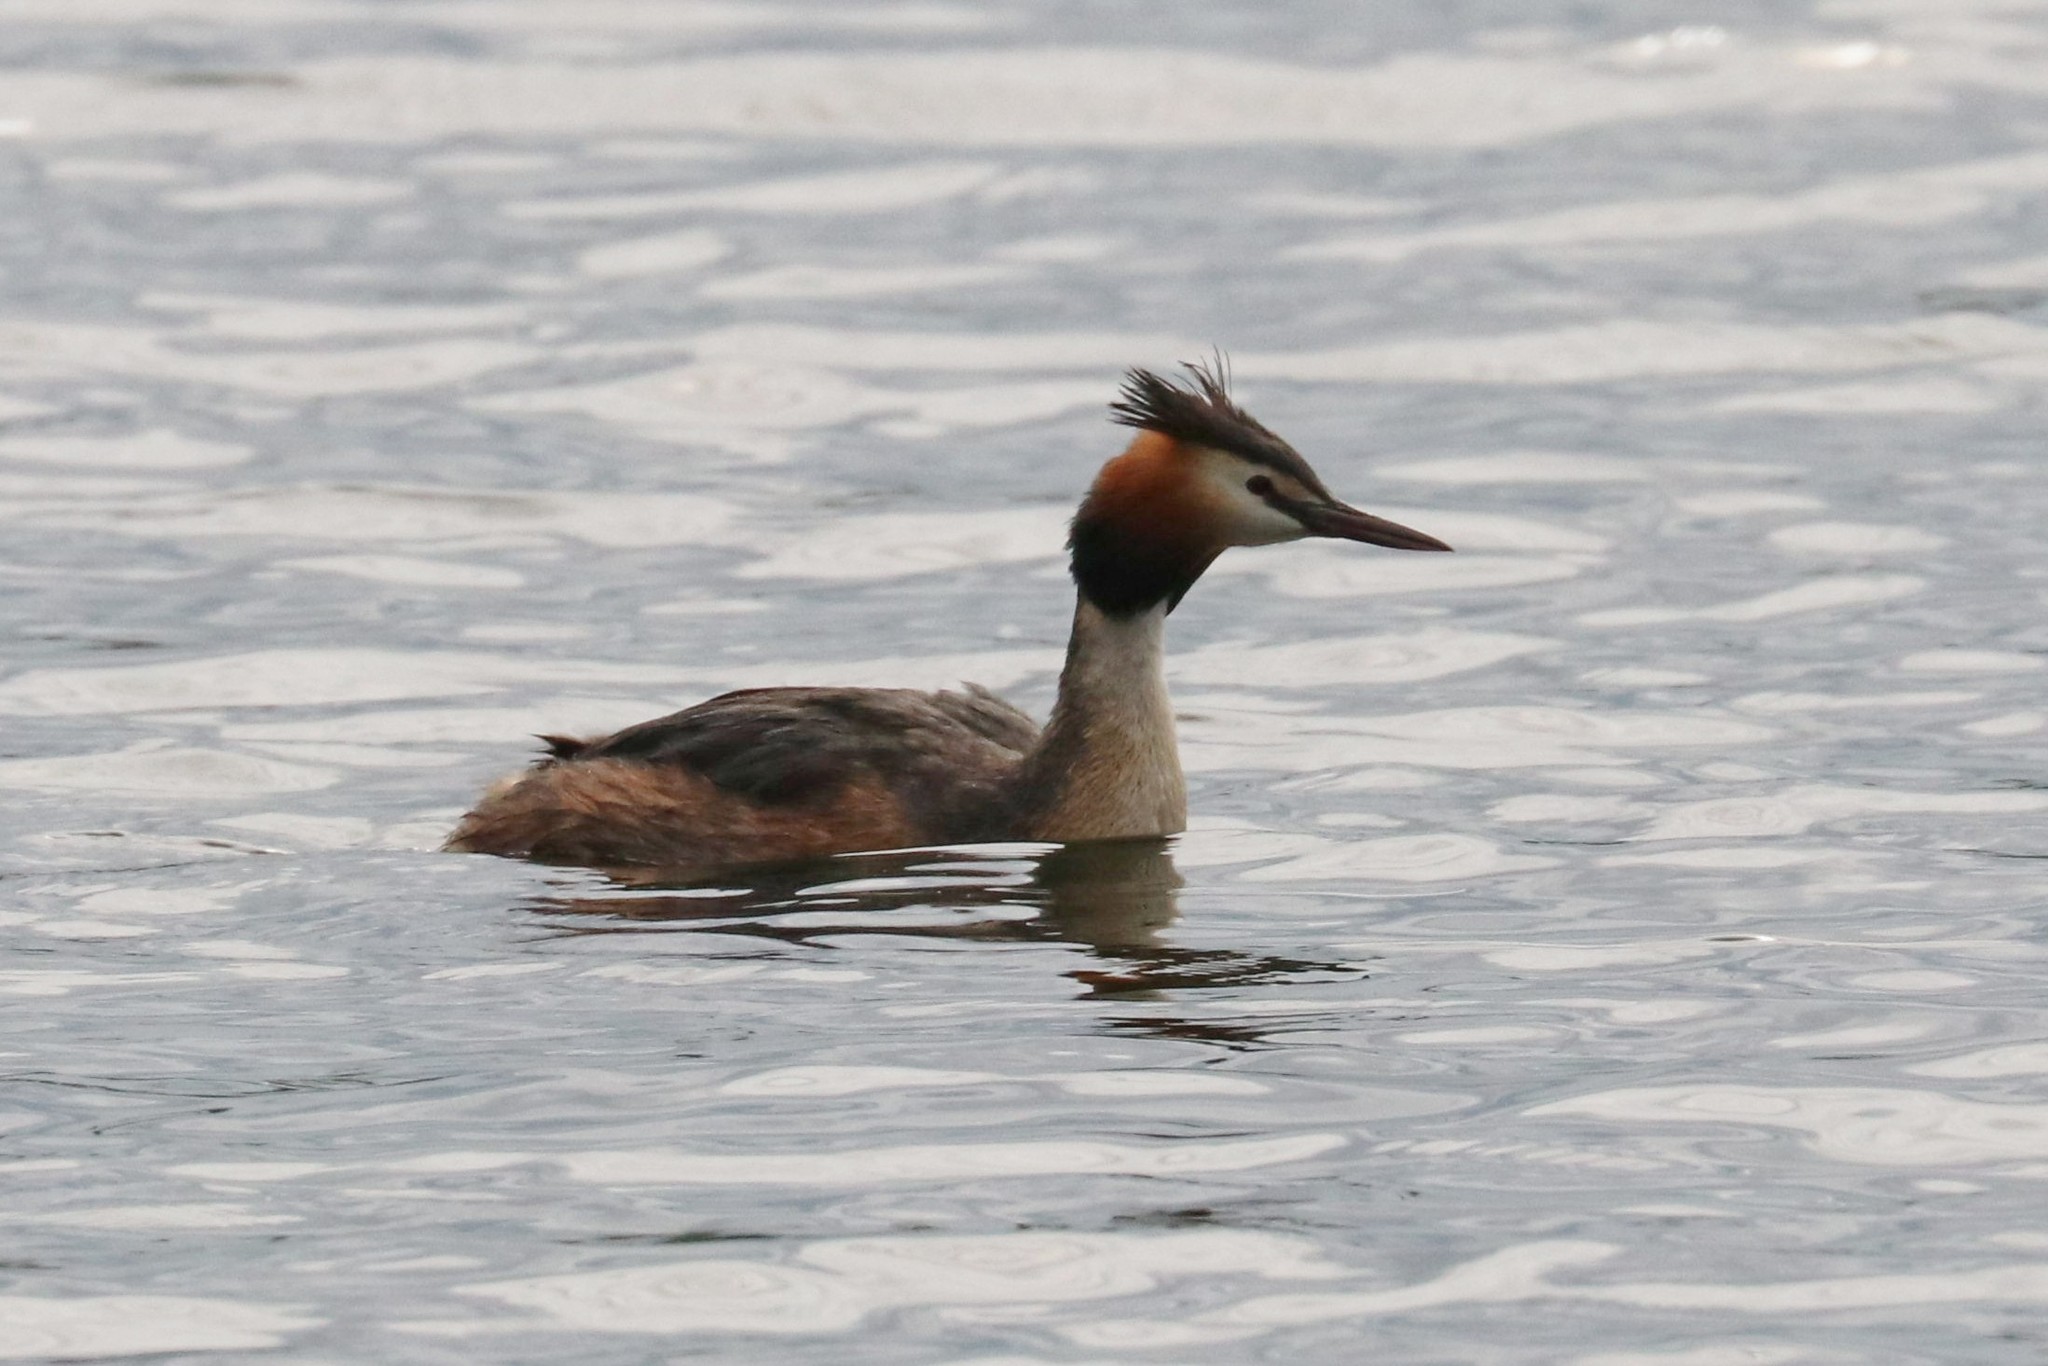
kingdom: Animalia
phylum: Chordata
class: Aves
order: Podicipediformes
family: Podicipedidae
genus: Podiceps
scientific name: Podiceps cristatus
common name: Great crested grebe
